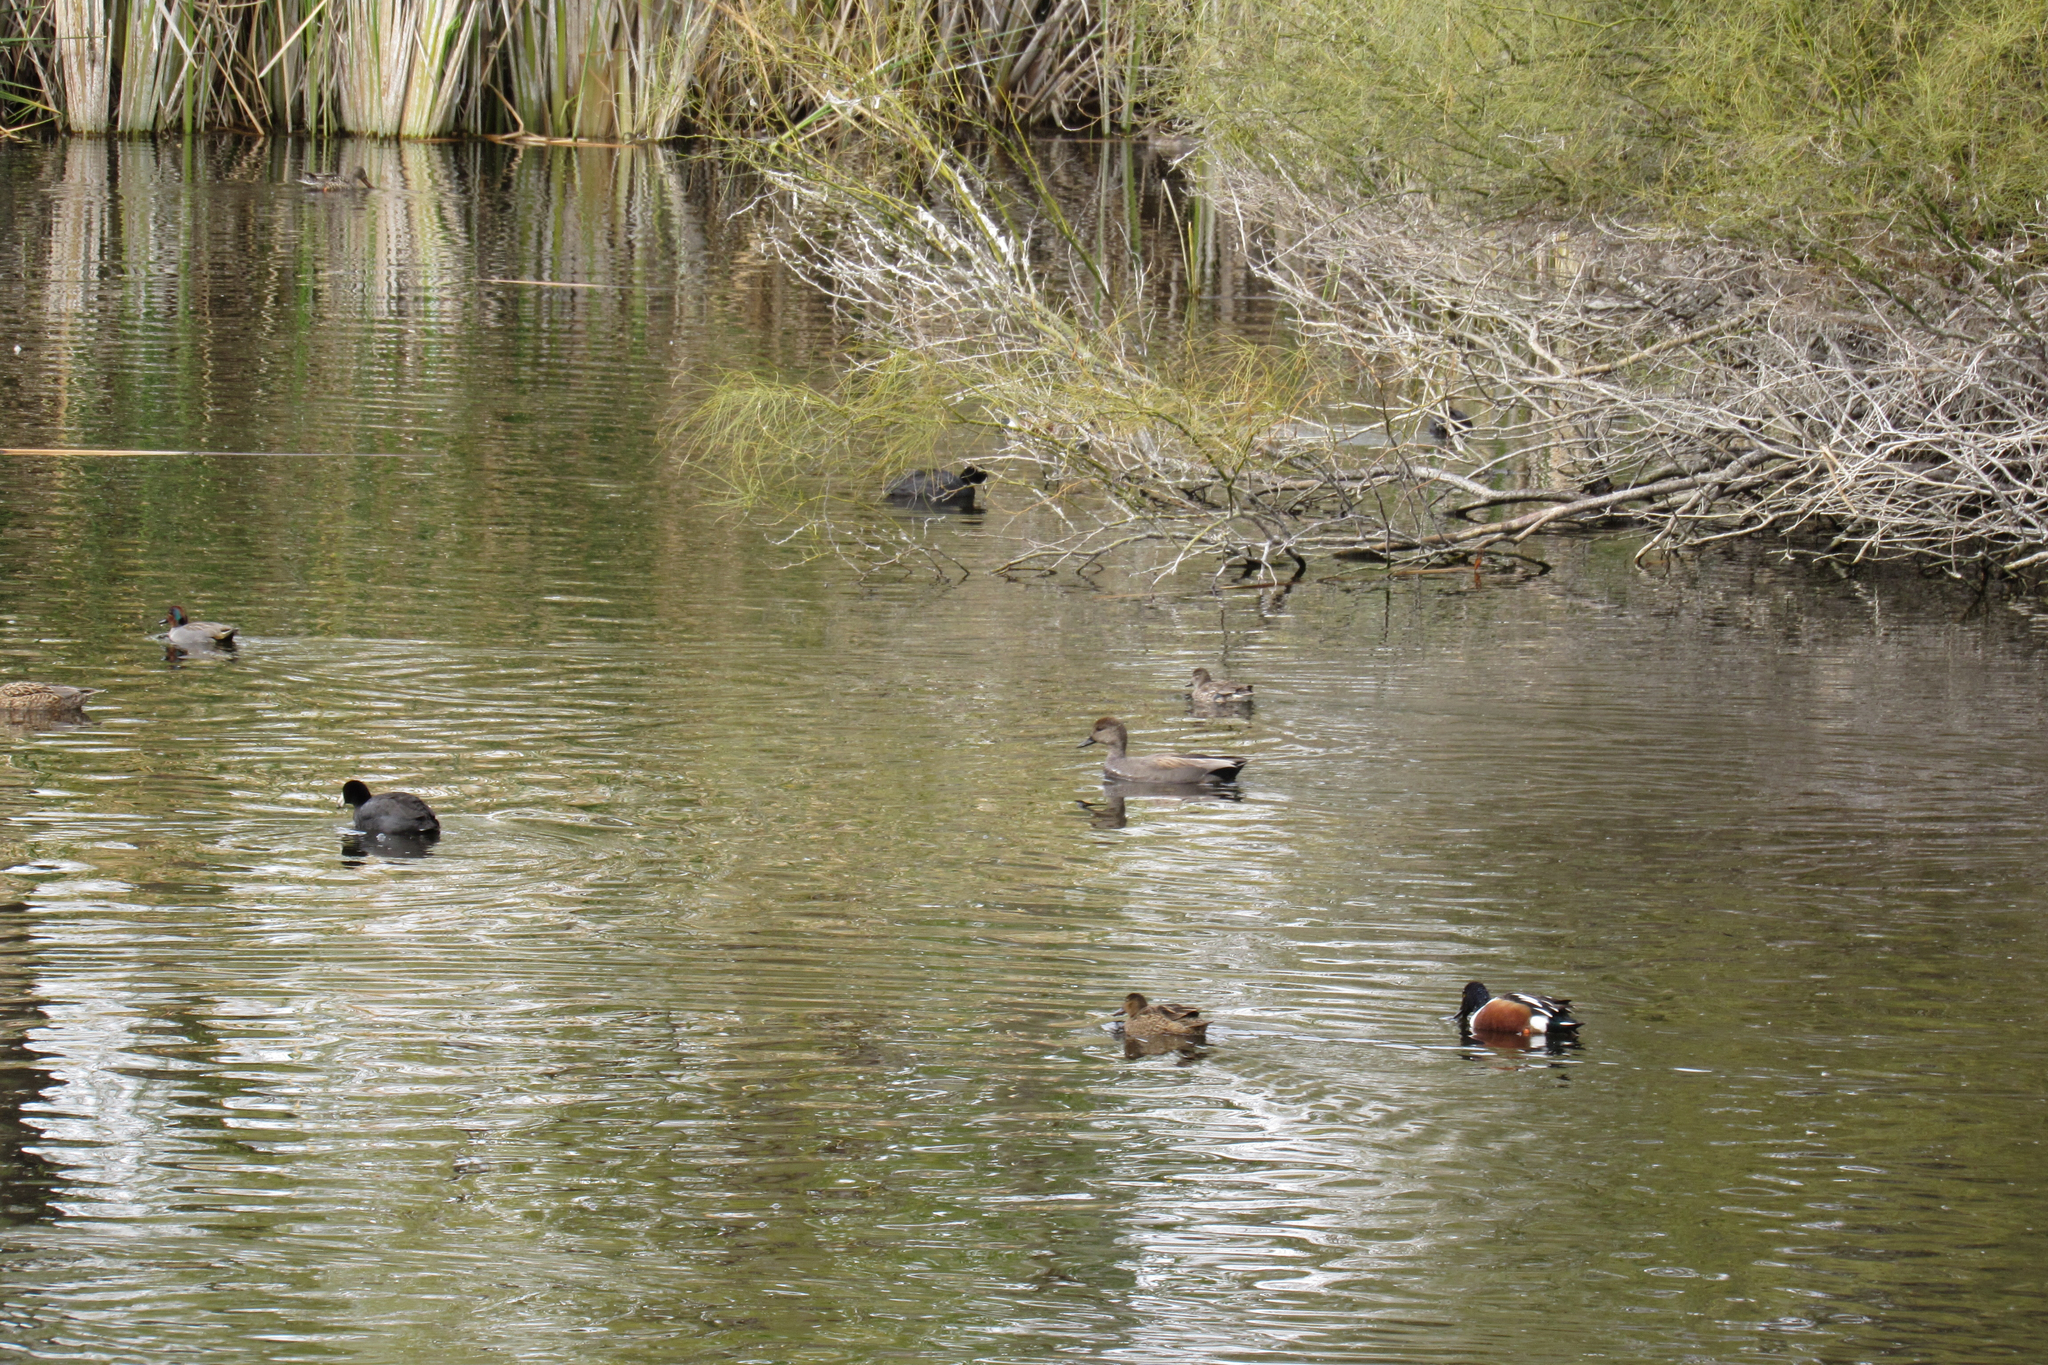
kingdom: Animalia
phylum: Chordata
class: Aves
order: Gruiformes
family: Rallidae
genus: Fulica
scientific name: Fulica americana
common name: American coot
